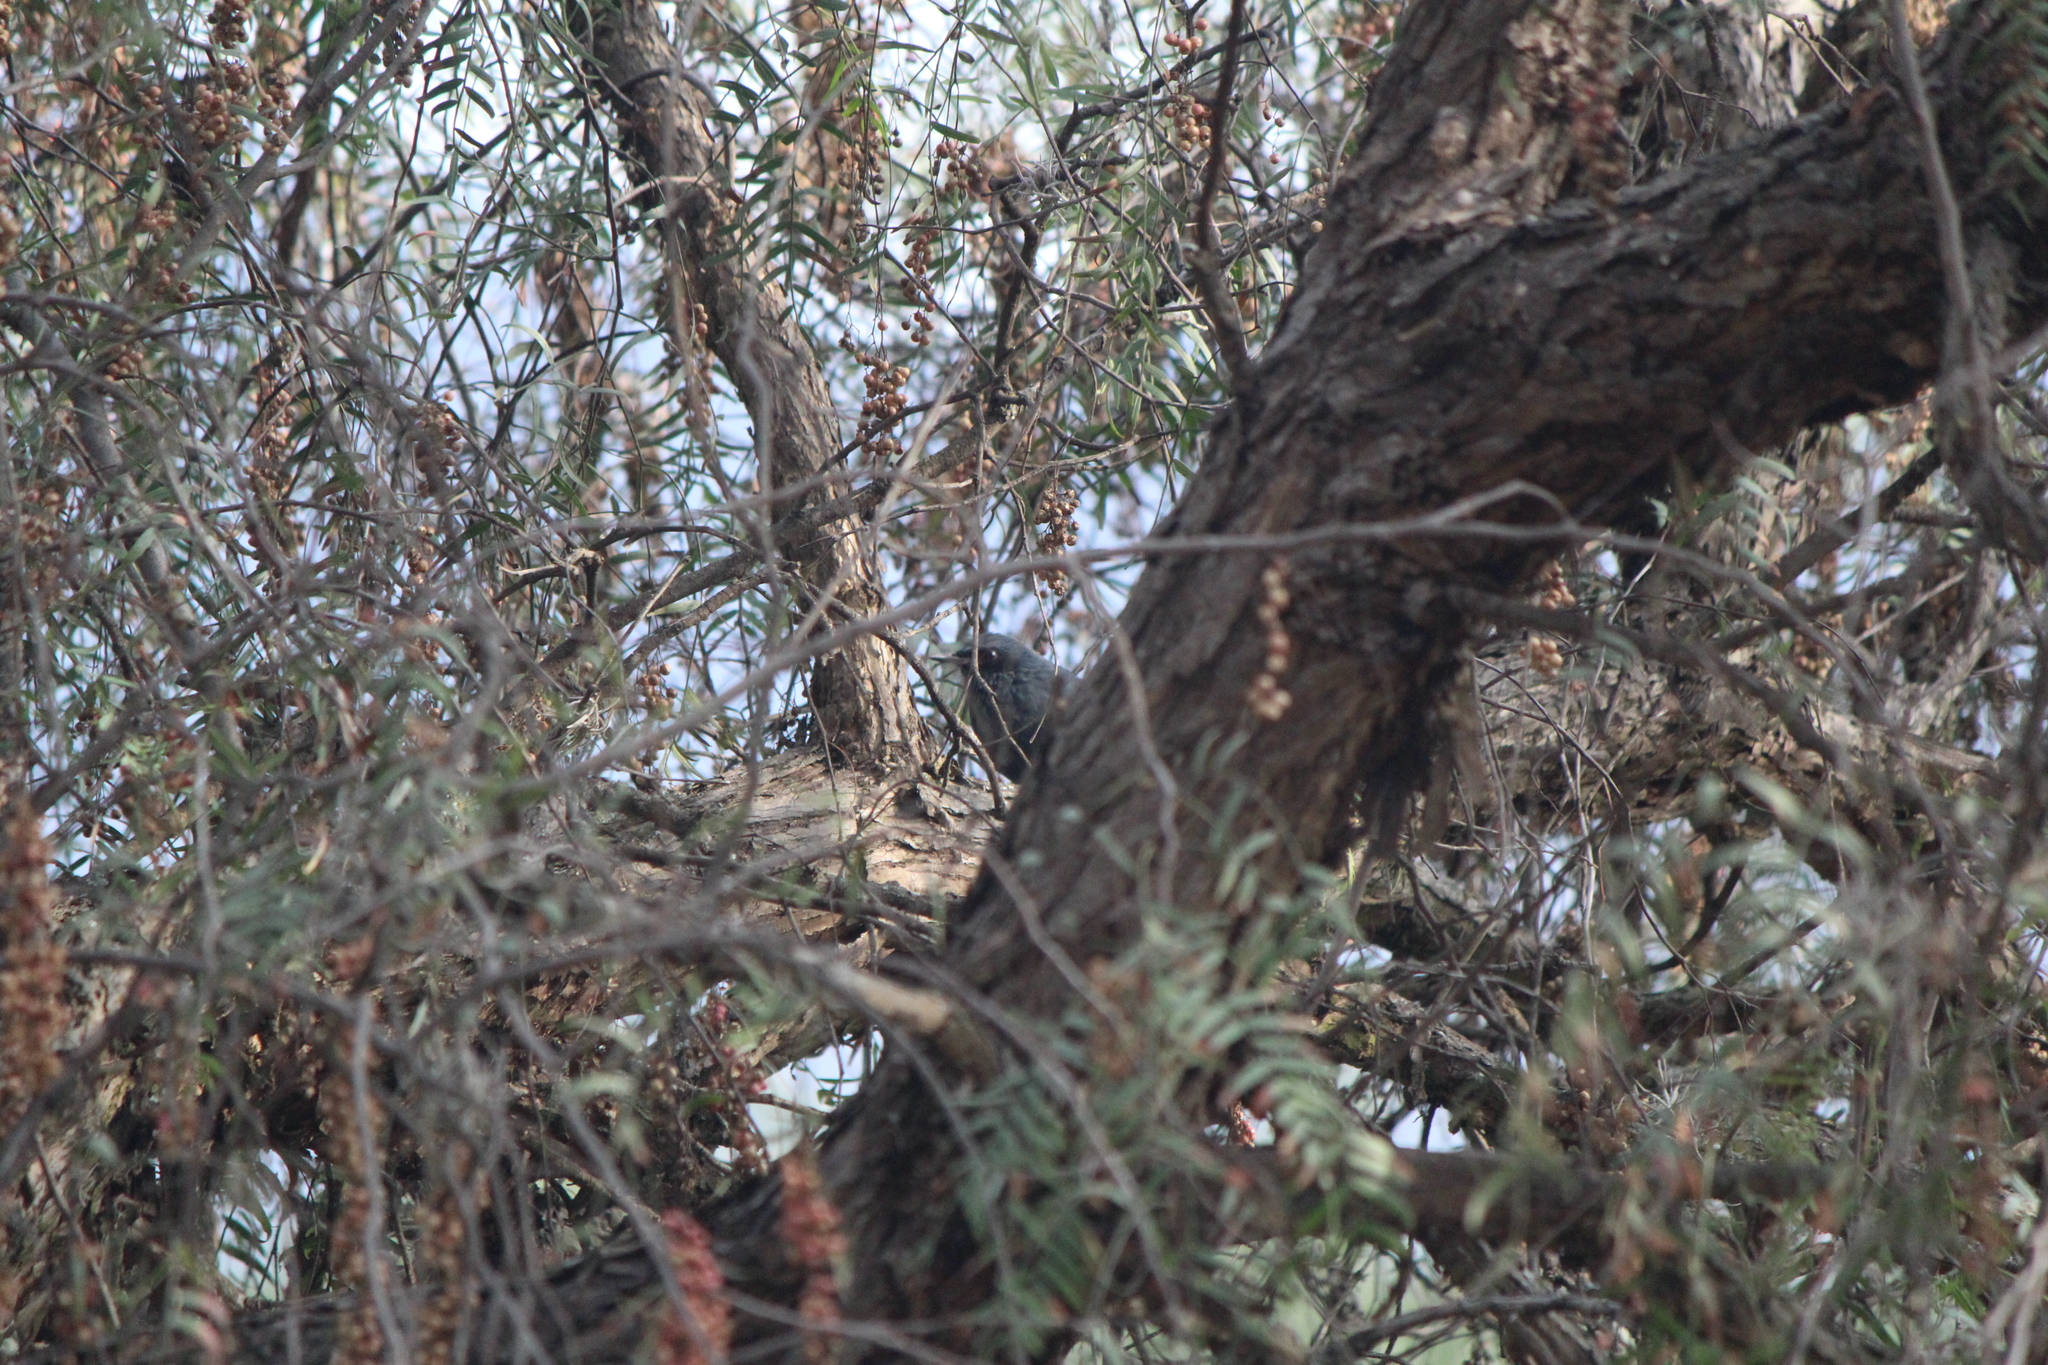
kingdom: Animalia
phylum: Chordata
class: Aves
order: Passeriformes
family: Mimidae
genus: Melanotis
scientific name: Melanotis caerulescens
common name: Blue mockingbird
